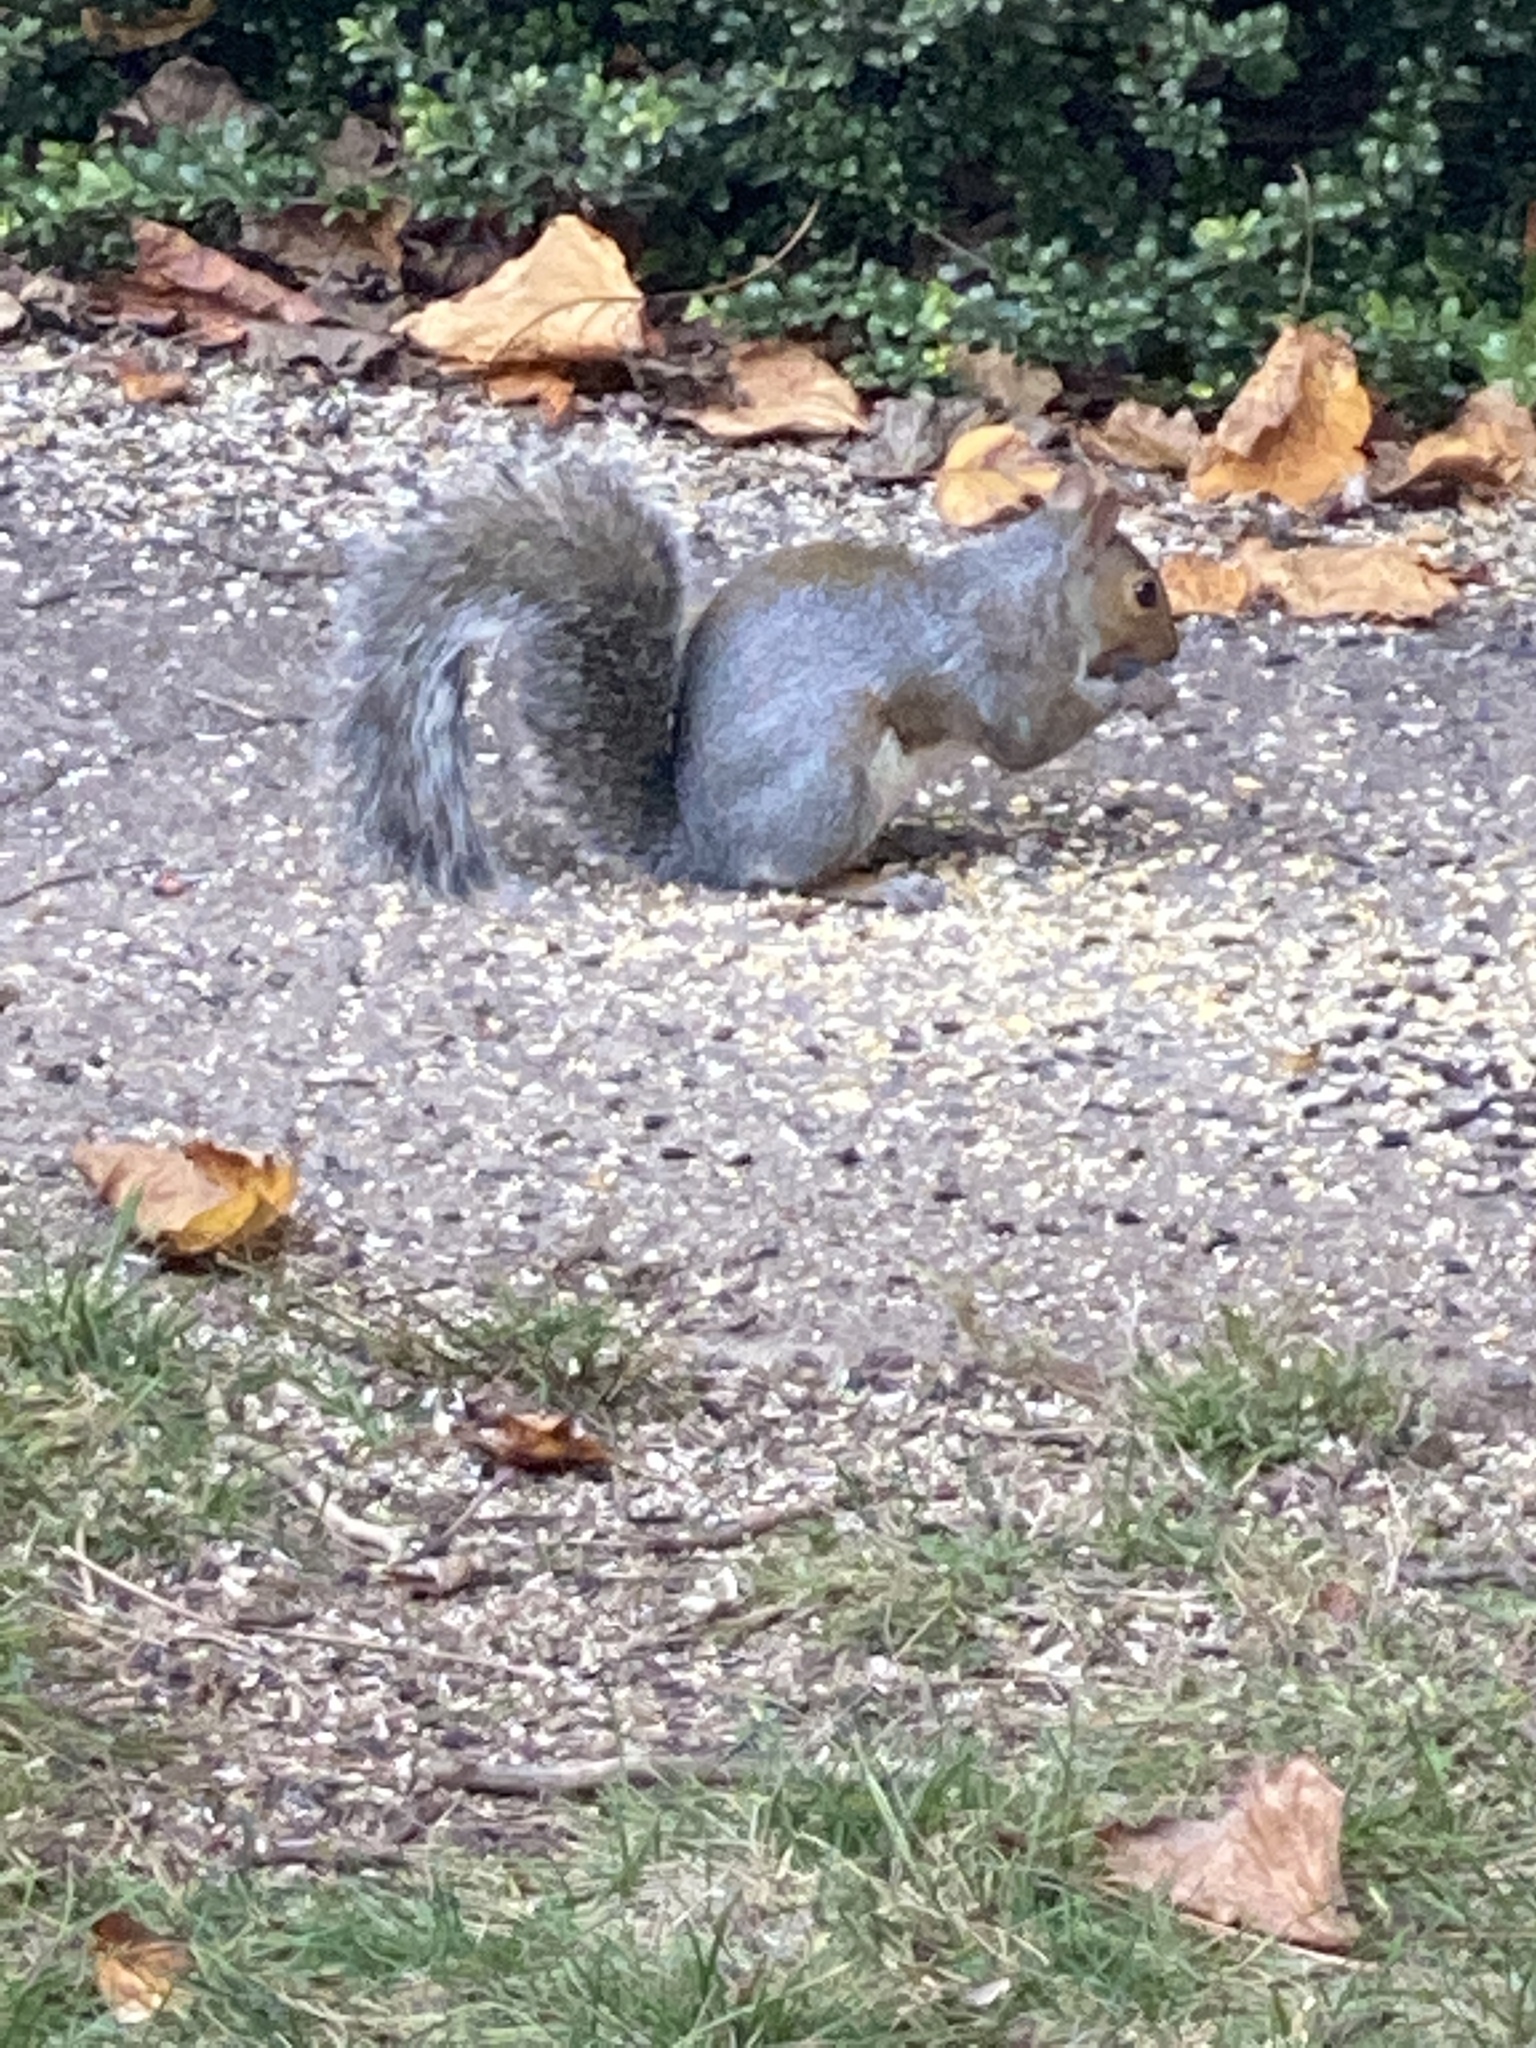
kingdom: Animalia
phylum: Chordata
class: Mammalia
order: Rodentia
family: Sciuridae
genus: Sciurus
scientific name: Sciurus carolinensis
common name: Eastern gray squirrel
